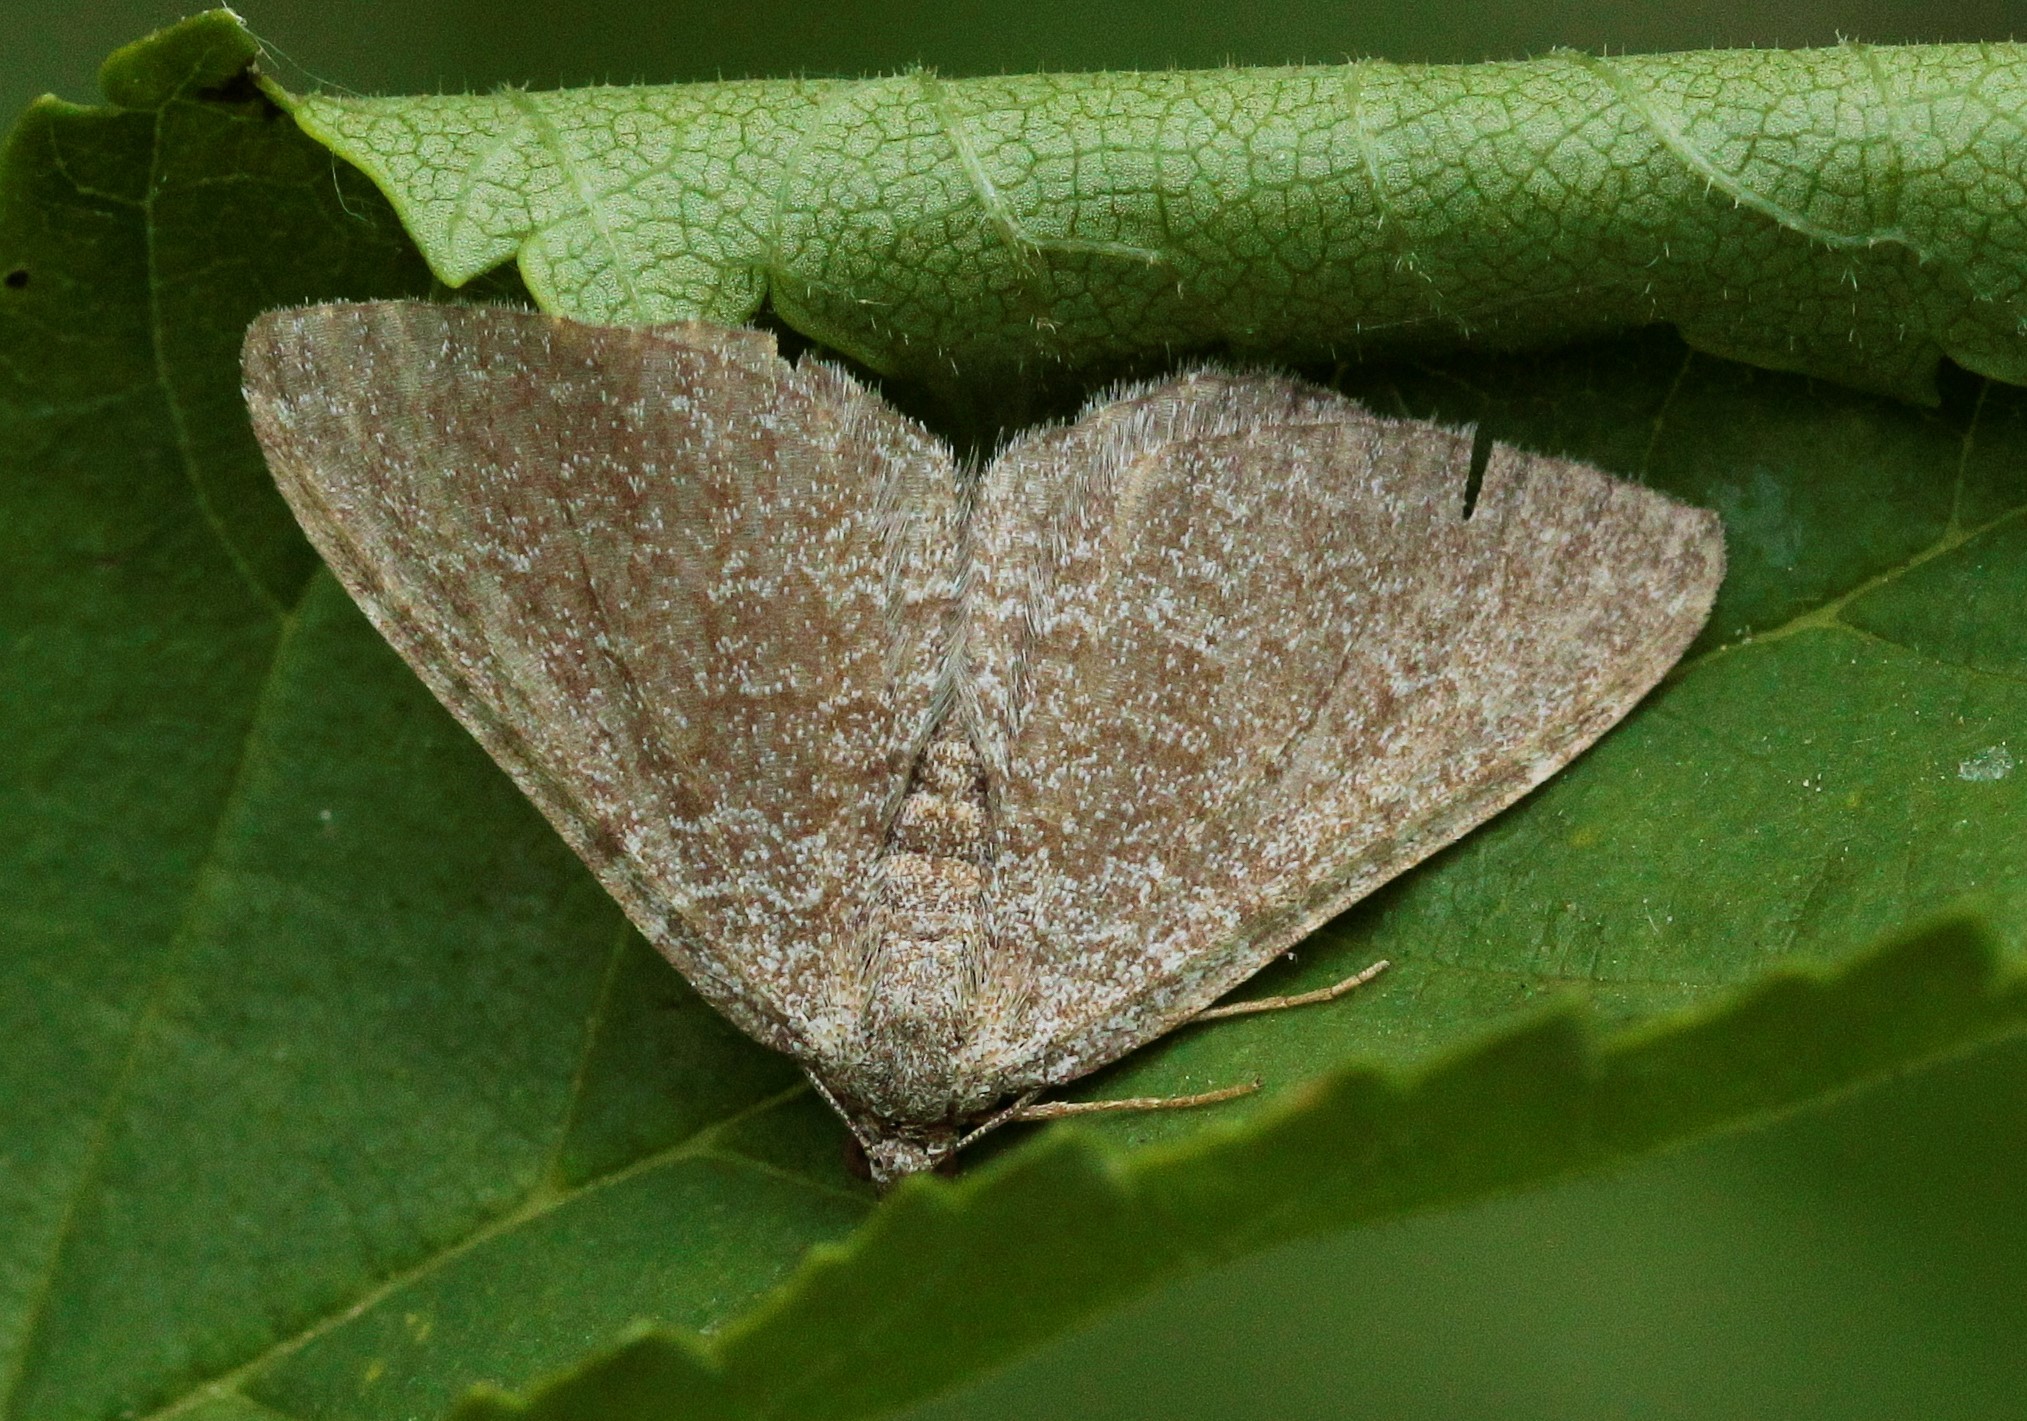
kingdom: Animalia
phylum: Arthropoda
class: Insecta
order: Lepidoptera
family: Geometridae
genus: Cataclysme
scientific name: Cataclysme riguata
